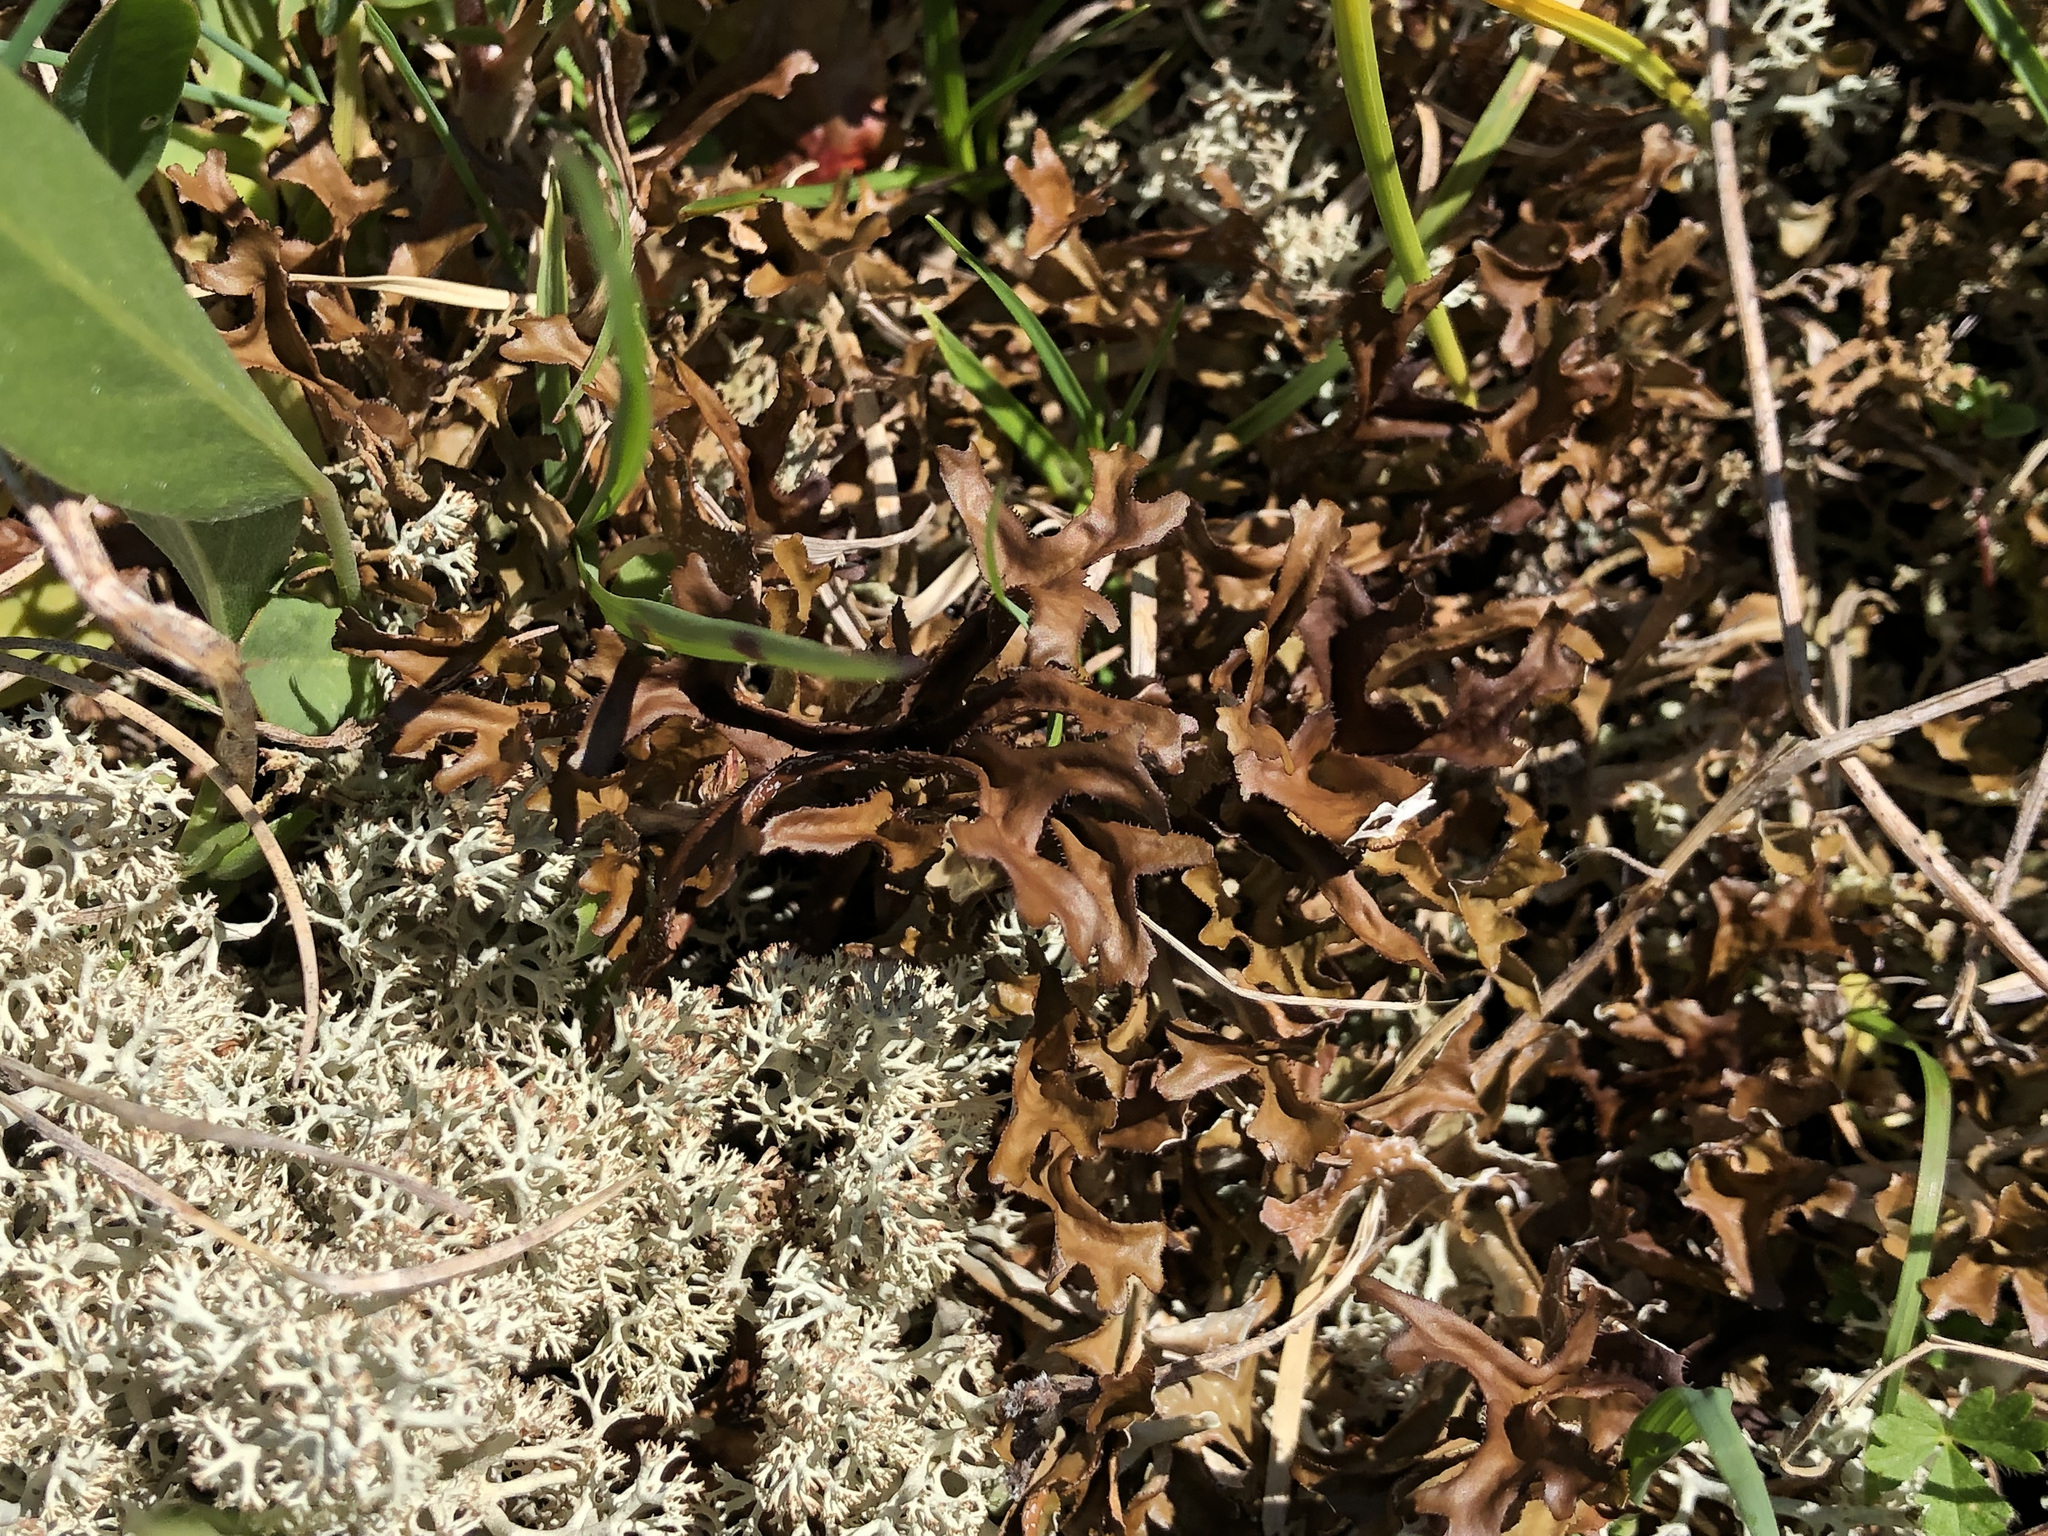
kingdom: Fungi
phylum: Ascomycota
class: Lecanoromycetes
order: Lecanorales
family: Parmeliaceae
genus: Cetraria
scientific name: Cetraria islandica
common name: Iceland lichen
